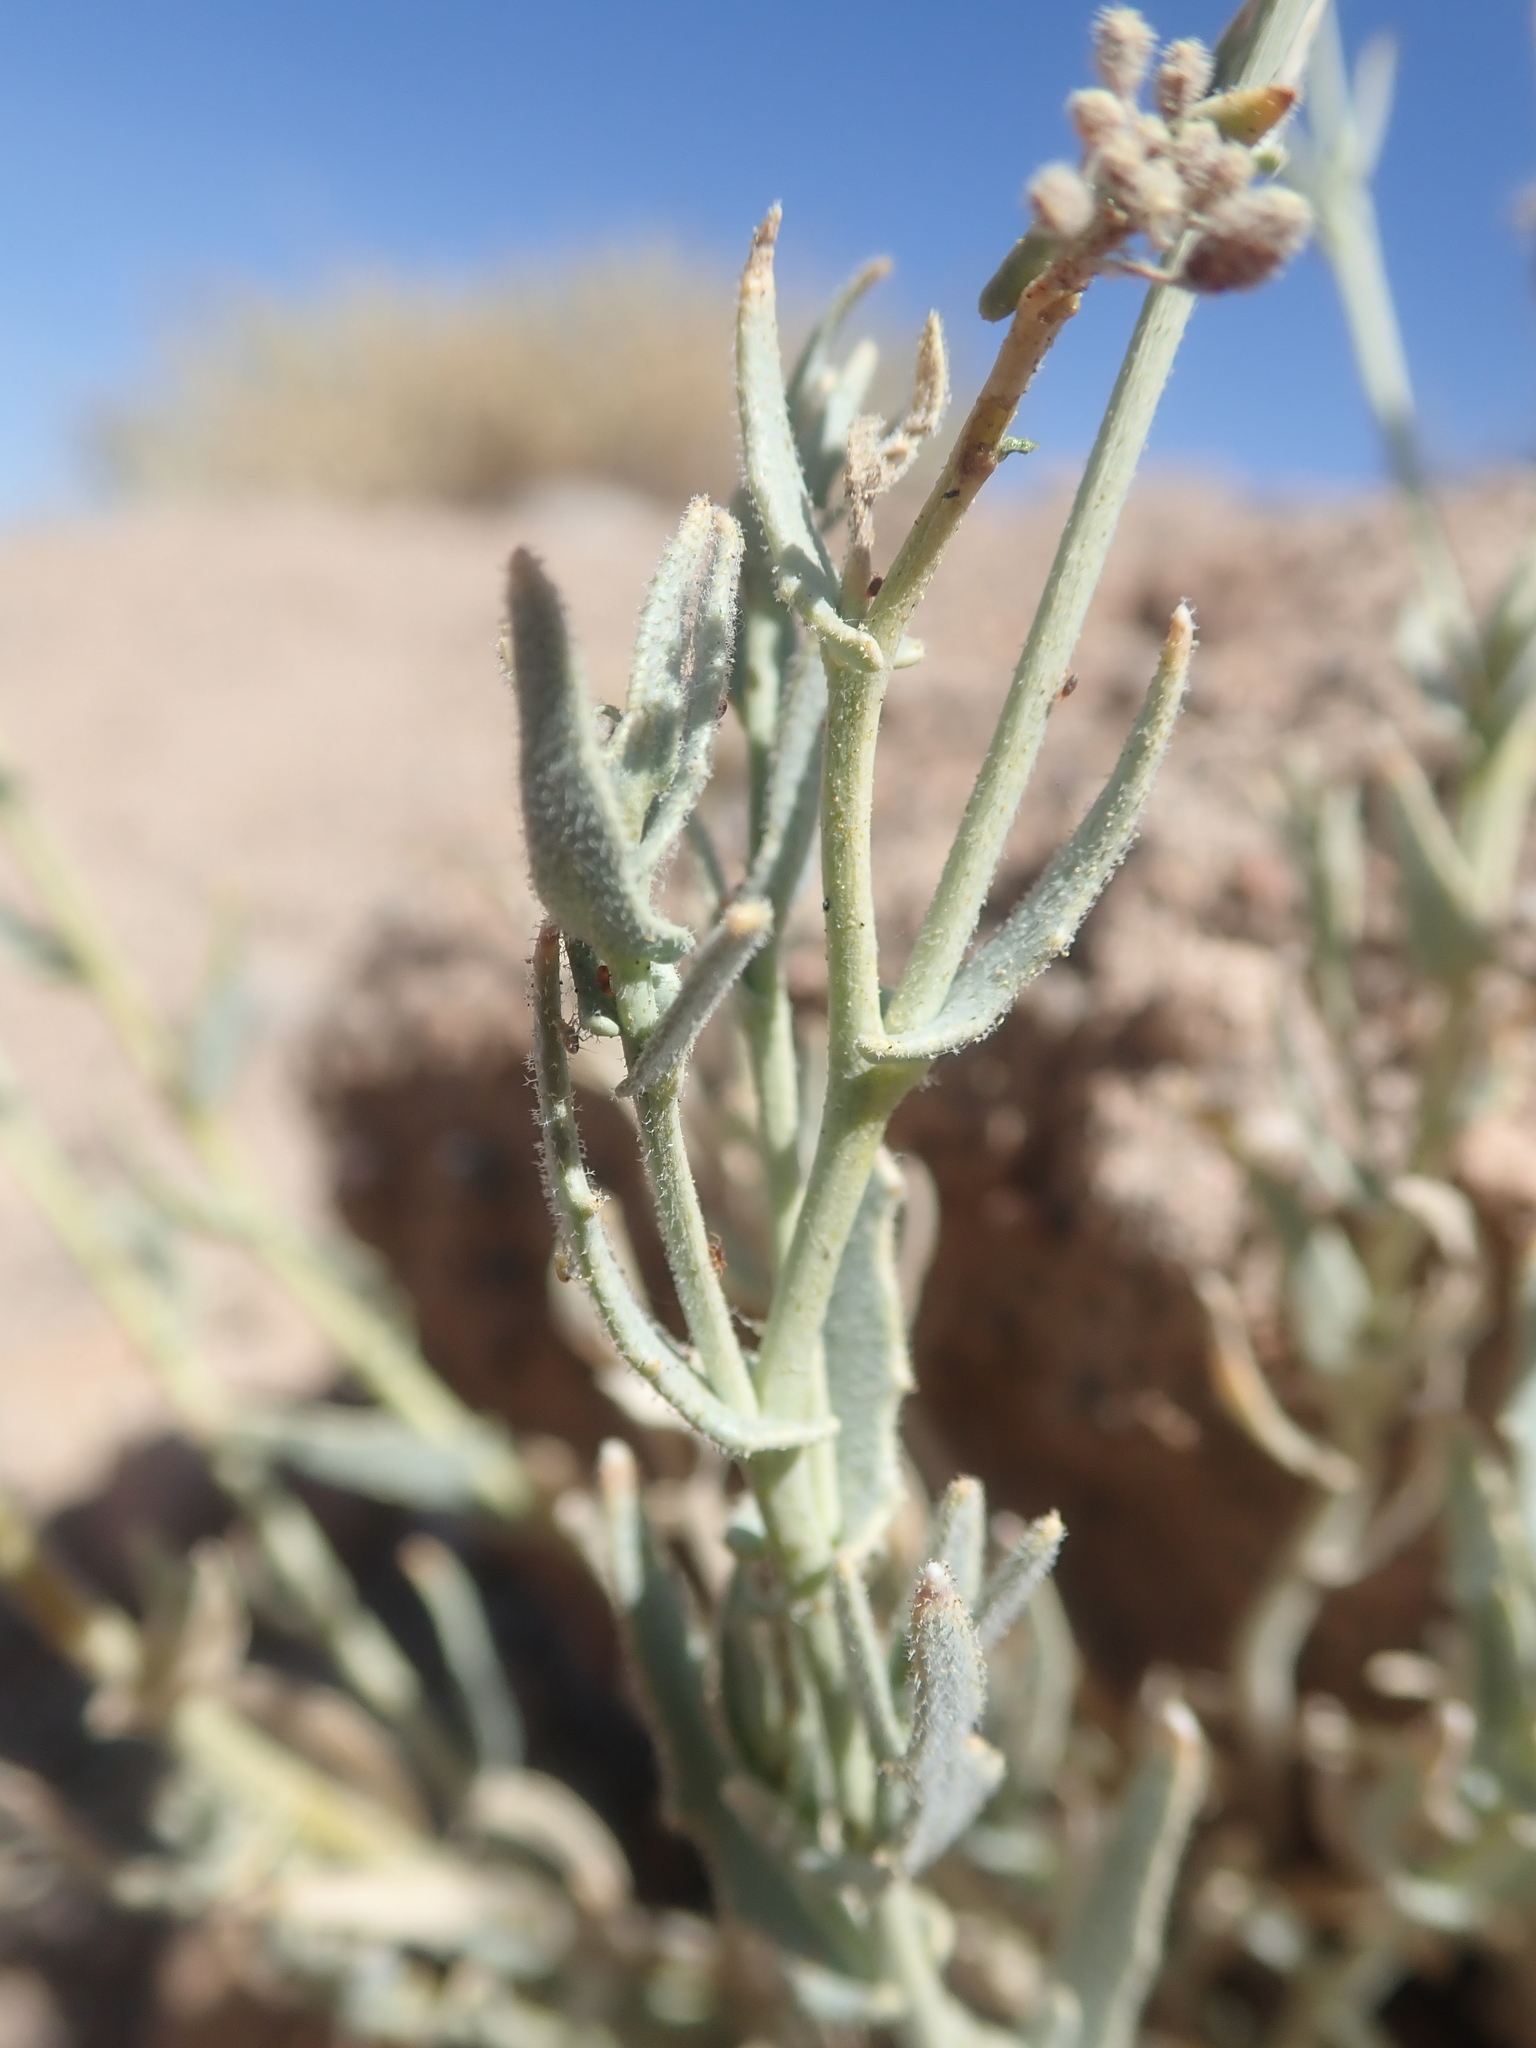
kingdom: Plantae
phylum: Tracheophyta
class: Magnoliopsida
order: Brassicales
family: Brassicaceae
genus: Neuontobotrys
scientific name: Neuontobotrys tarapacana
